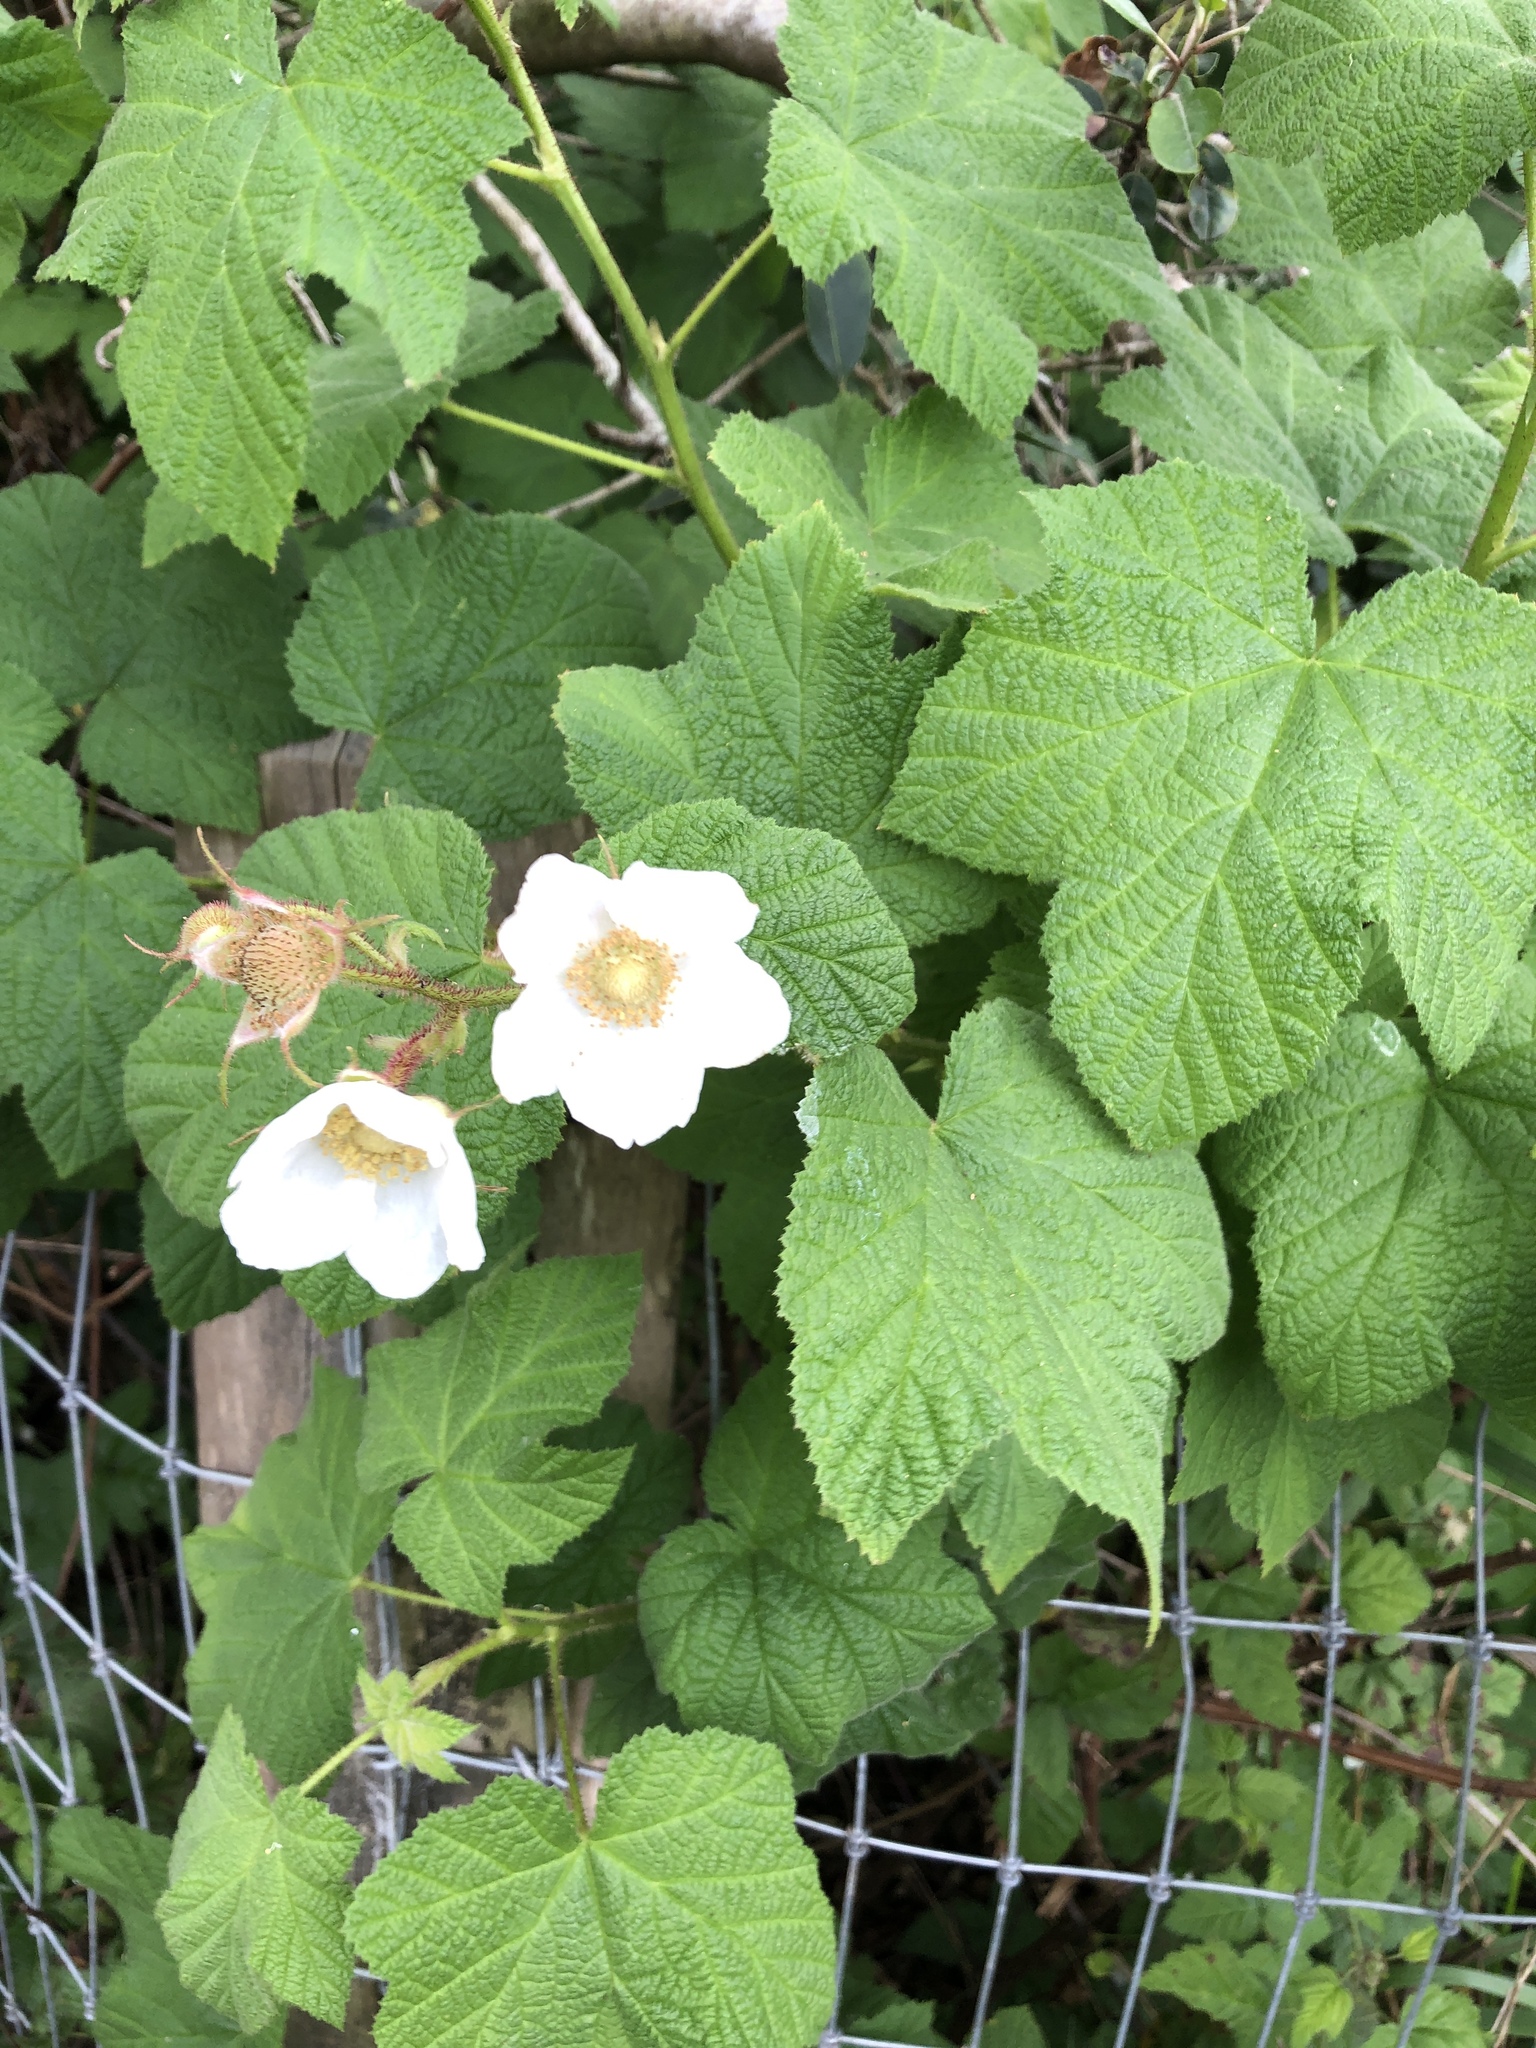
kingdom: Plantae
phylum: Tracheophyta
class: Magnoliopsida
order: Rosales
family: Rosaceae
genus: Rubus
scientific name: Rubus parviflorus
